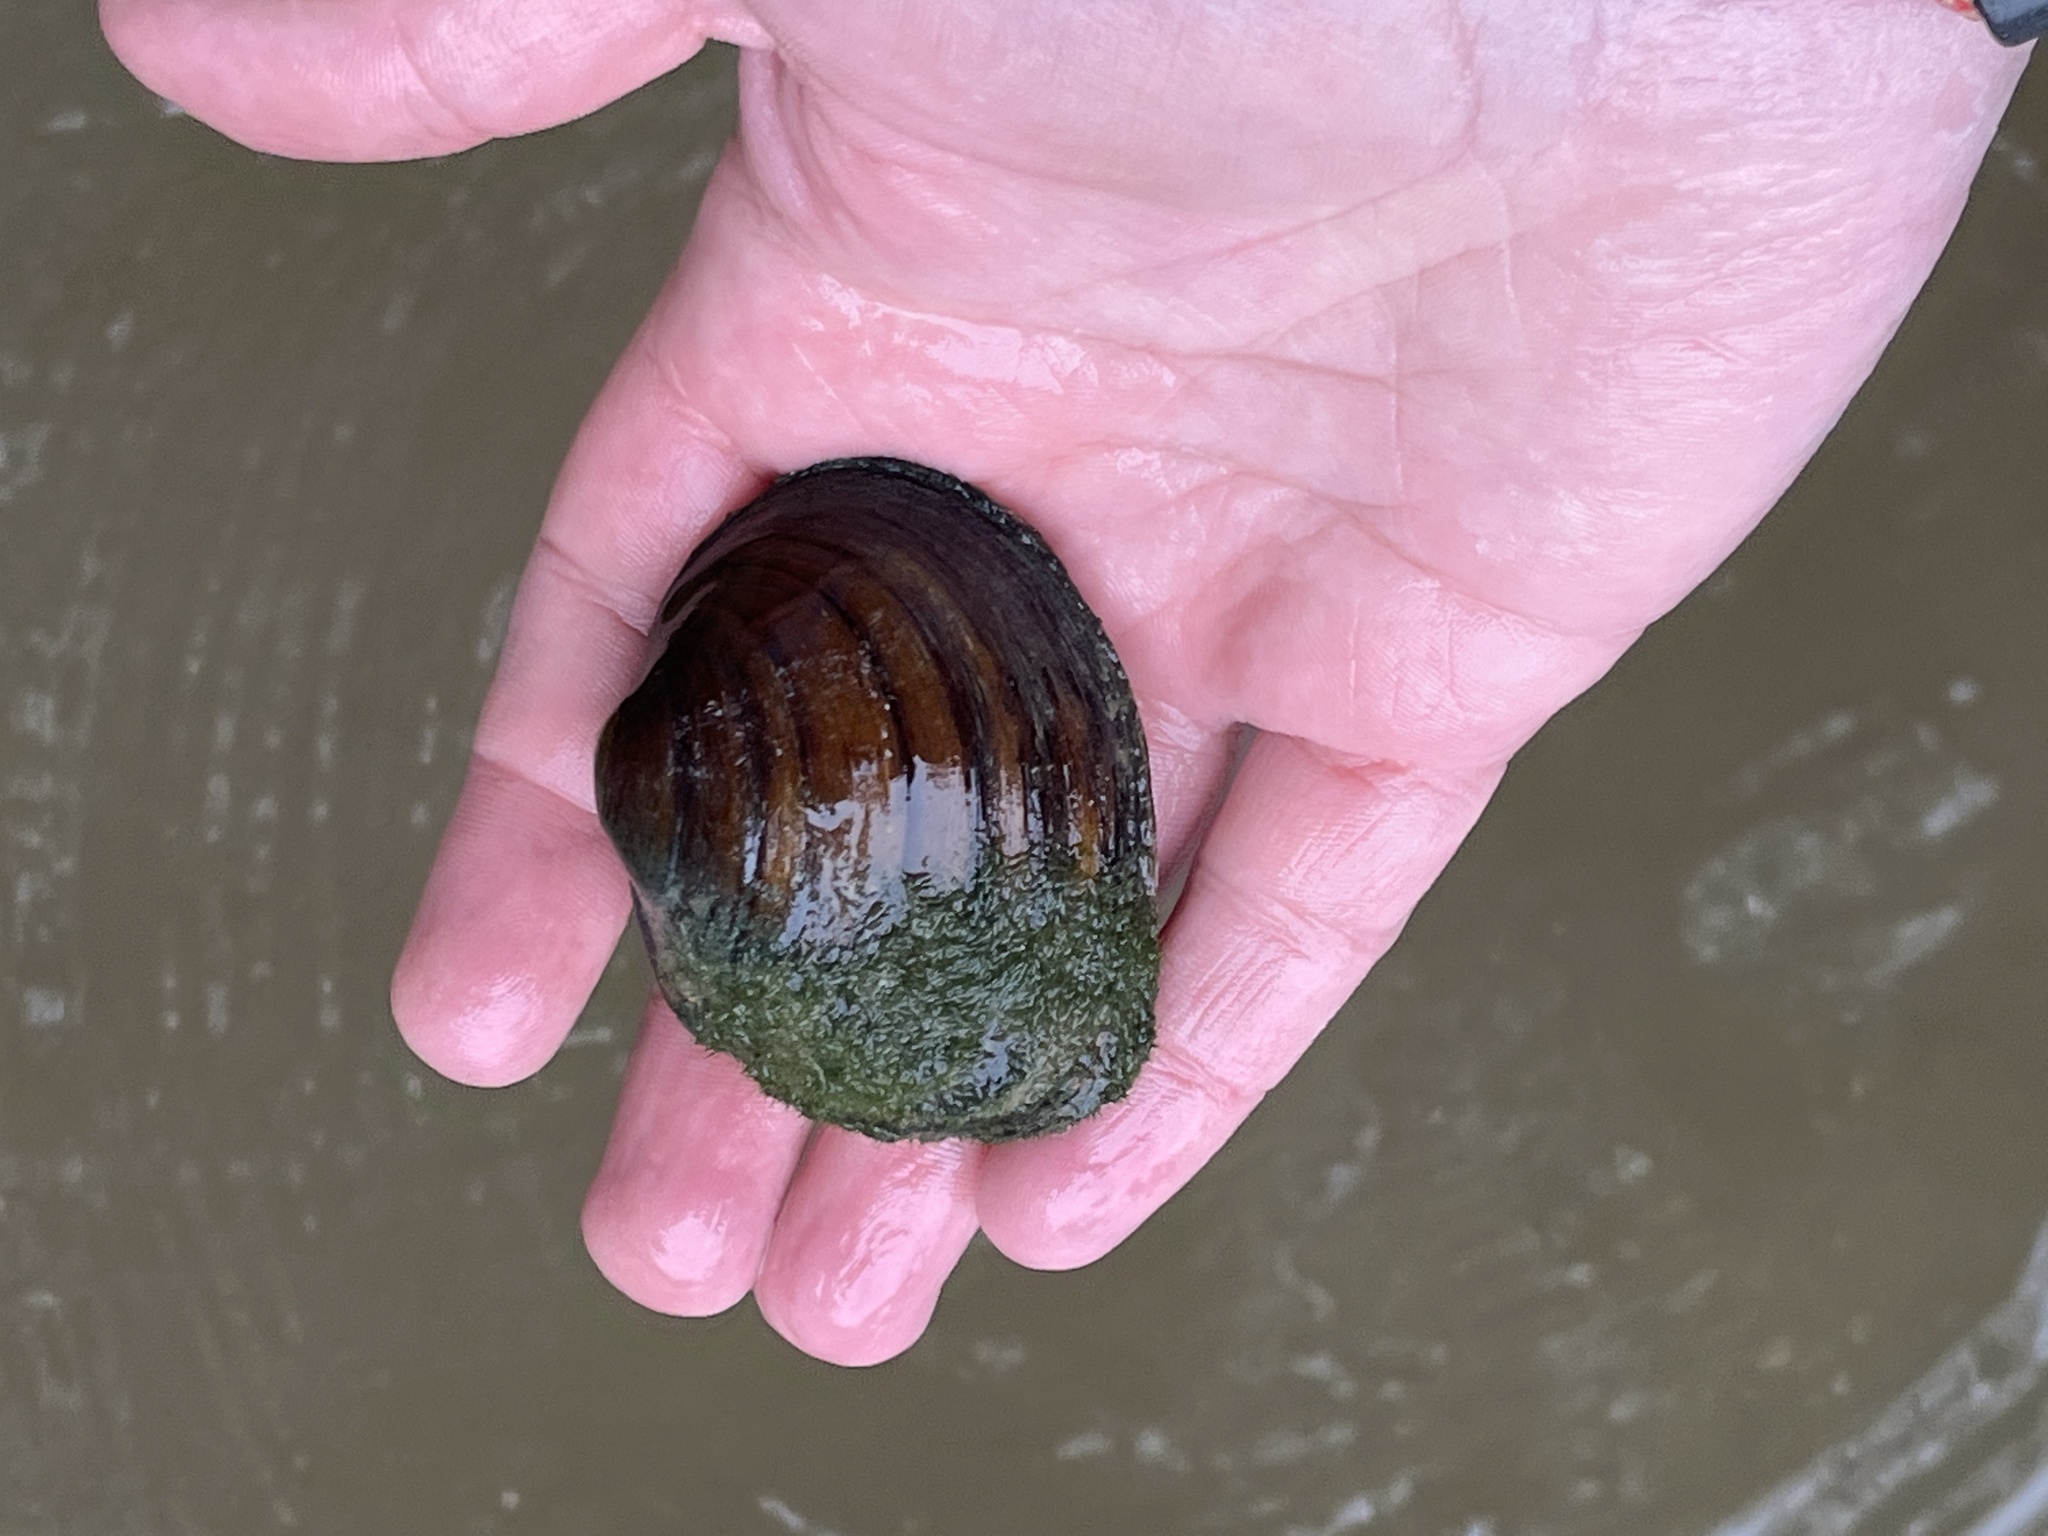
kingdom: Animalia
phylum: Mollusca
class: Bivalvia
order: Unionida
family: Unionidae
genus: Fusconaia
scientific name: Fusconaia flava
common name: Wabash pigtoe
